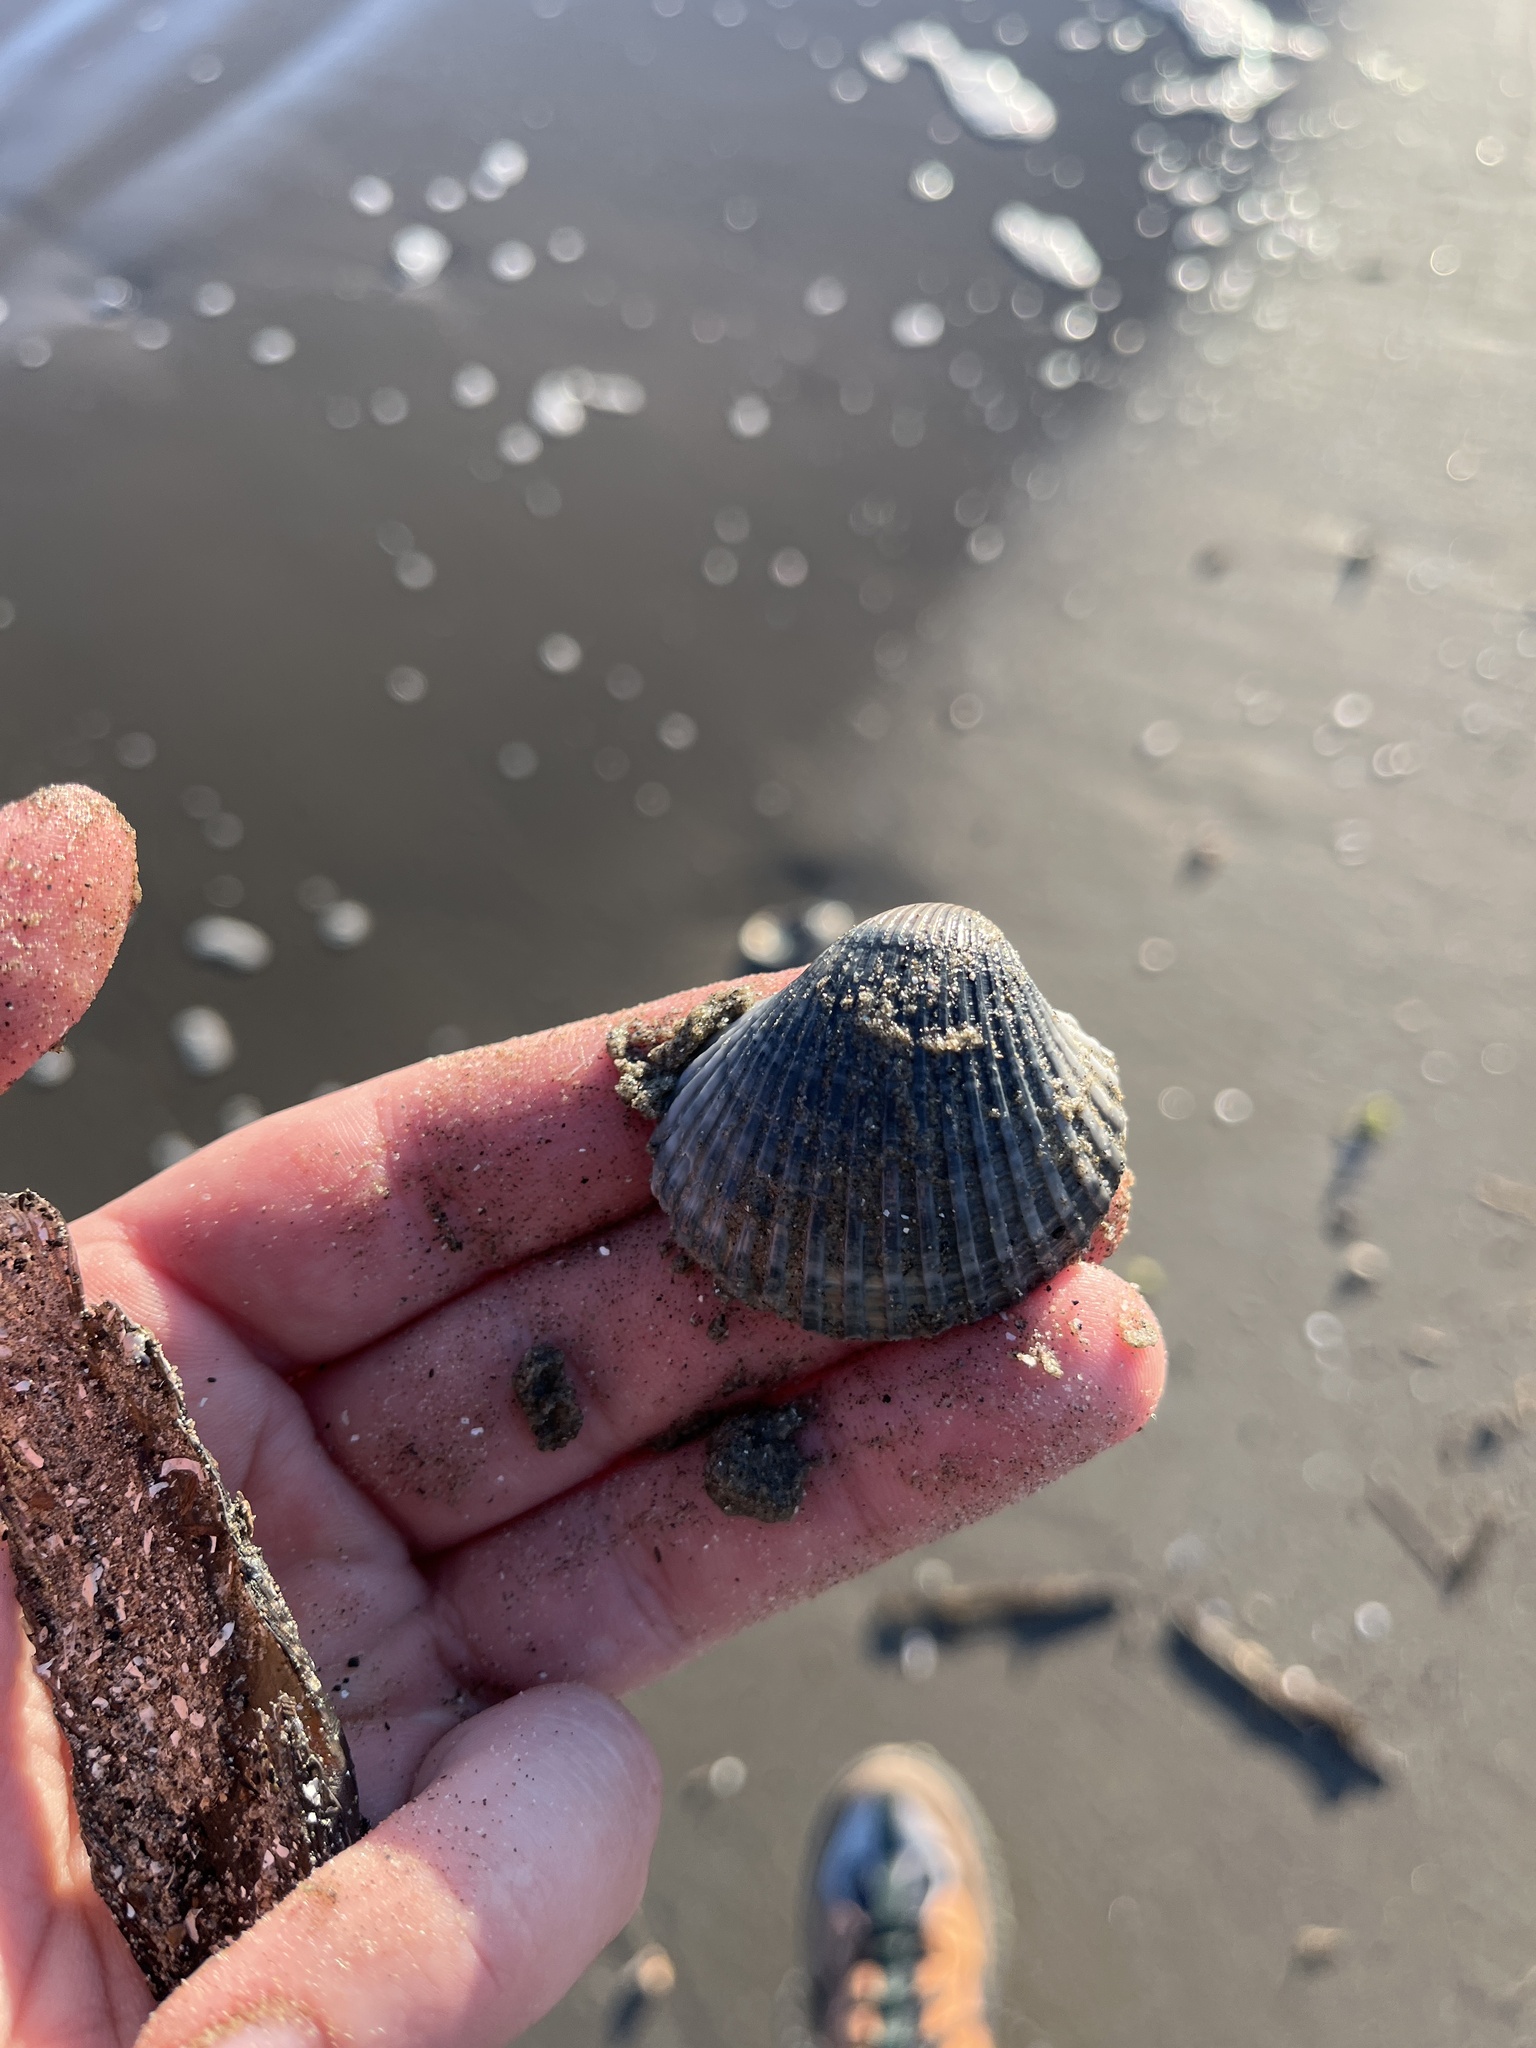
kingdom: Animalia
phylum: Mollusca
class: Bivalvia
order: Arcida
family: Arcidae
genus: Anadara
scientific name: Anadara brasiliana
